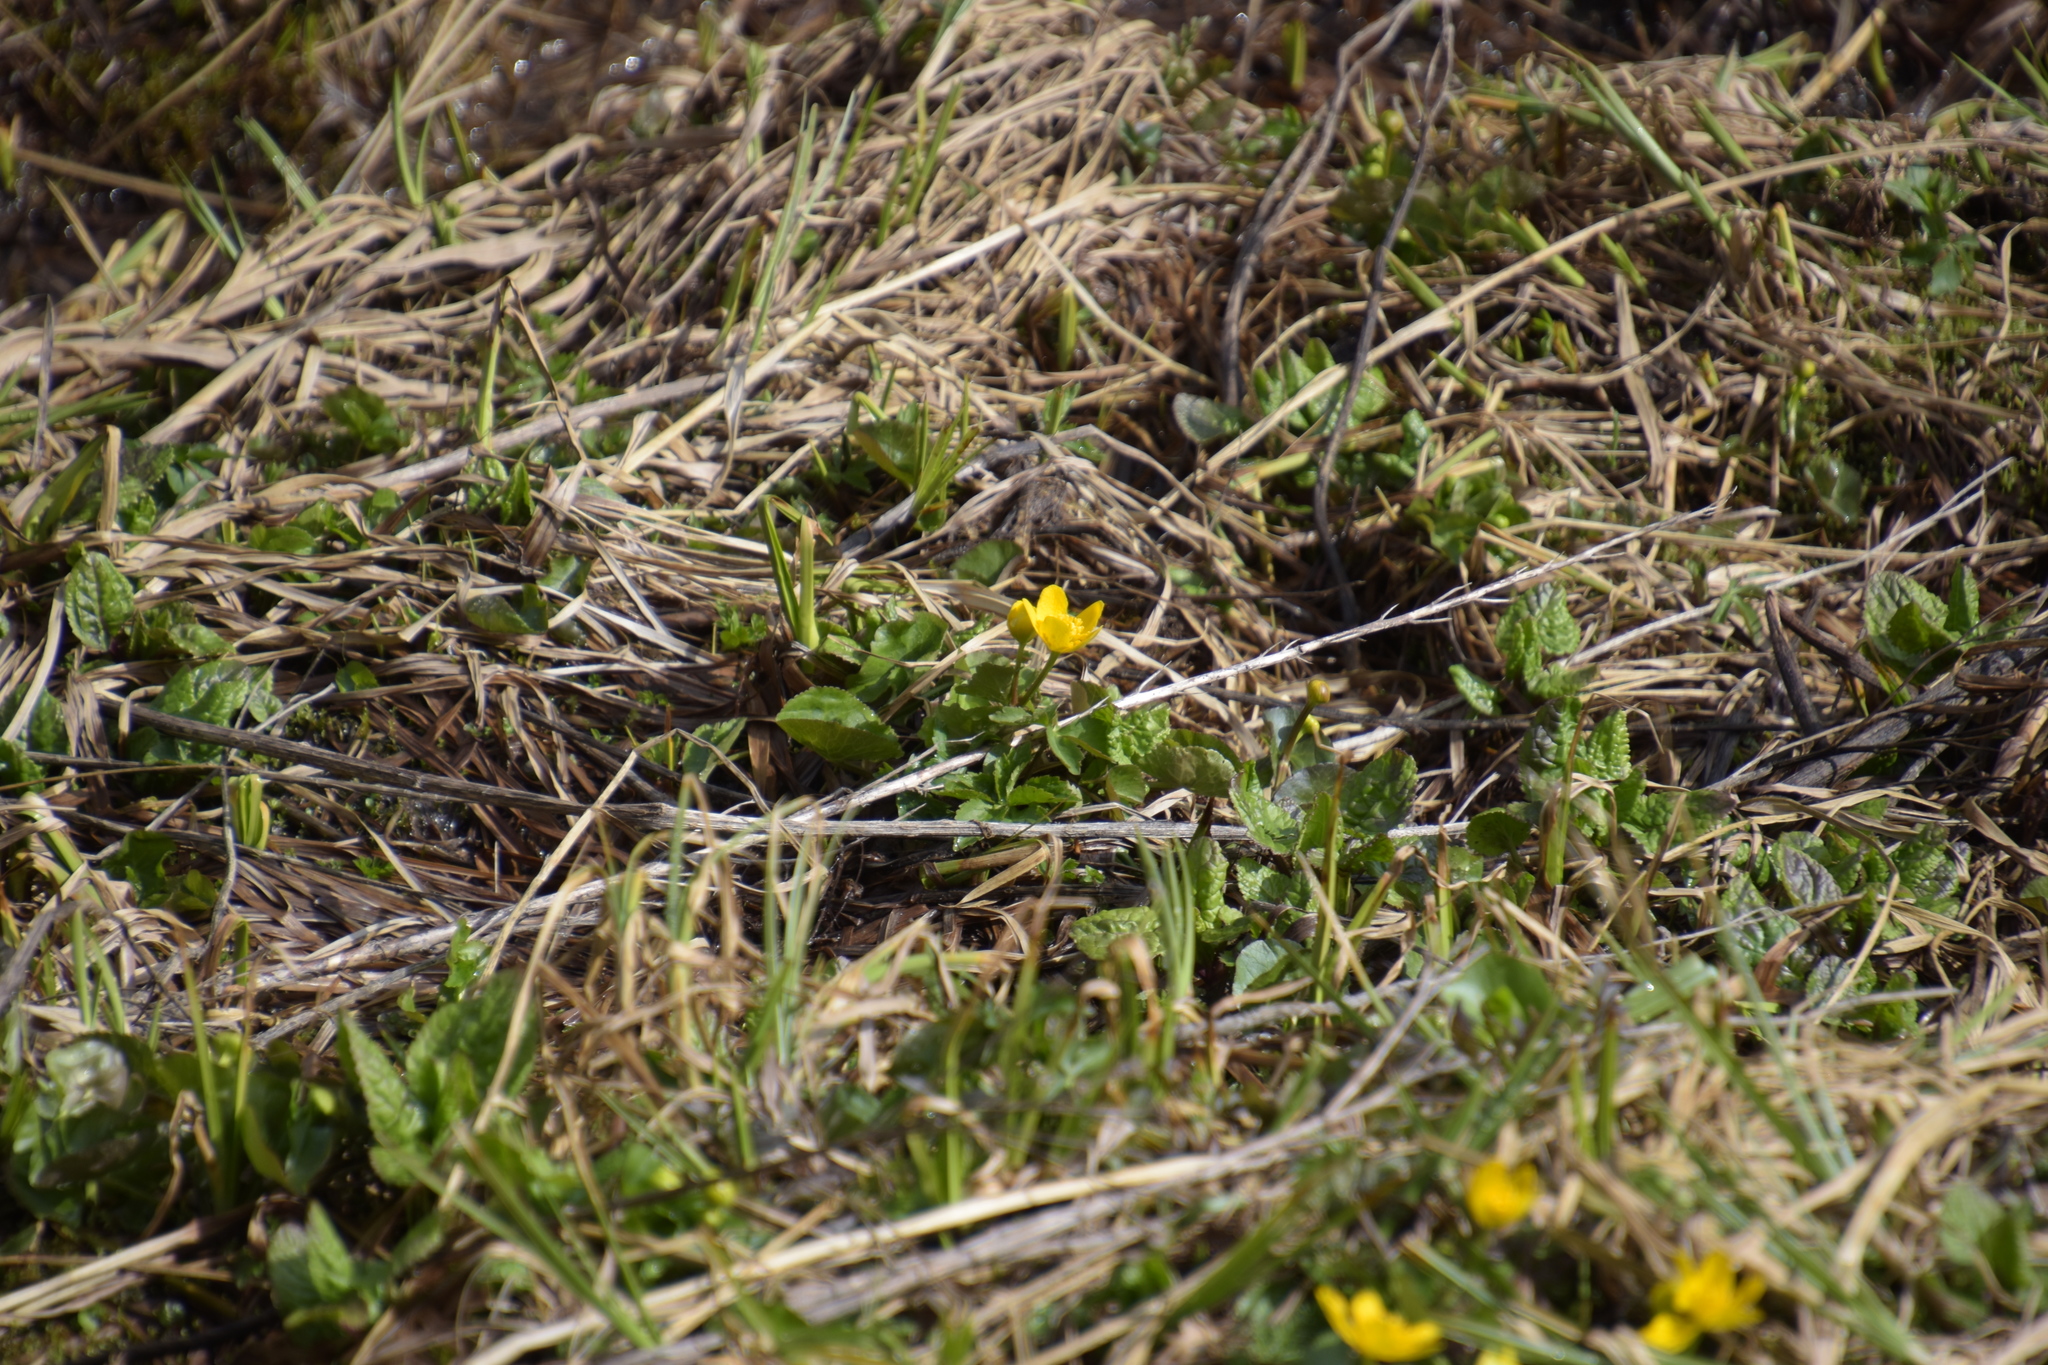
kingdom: Plantae
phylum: Tracheophyta
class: Magnoliopsida
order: Ranunculales
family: Ranunculaceae
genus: Caltha
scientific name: Caltha palustris
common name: Marsh marigold
